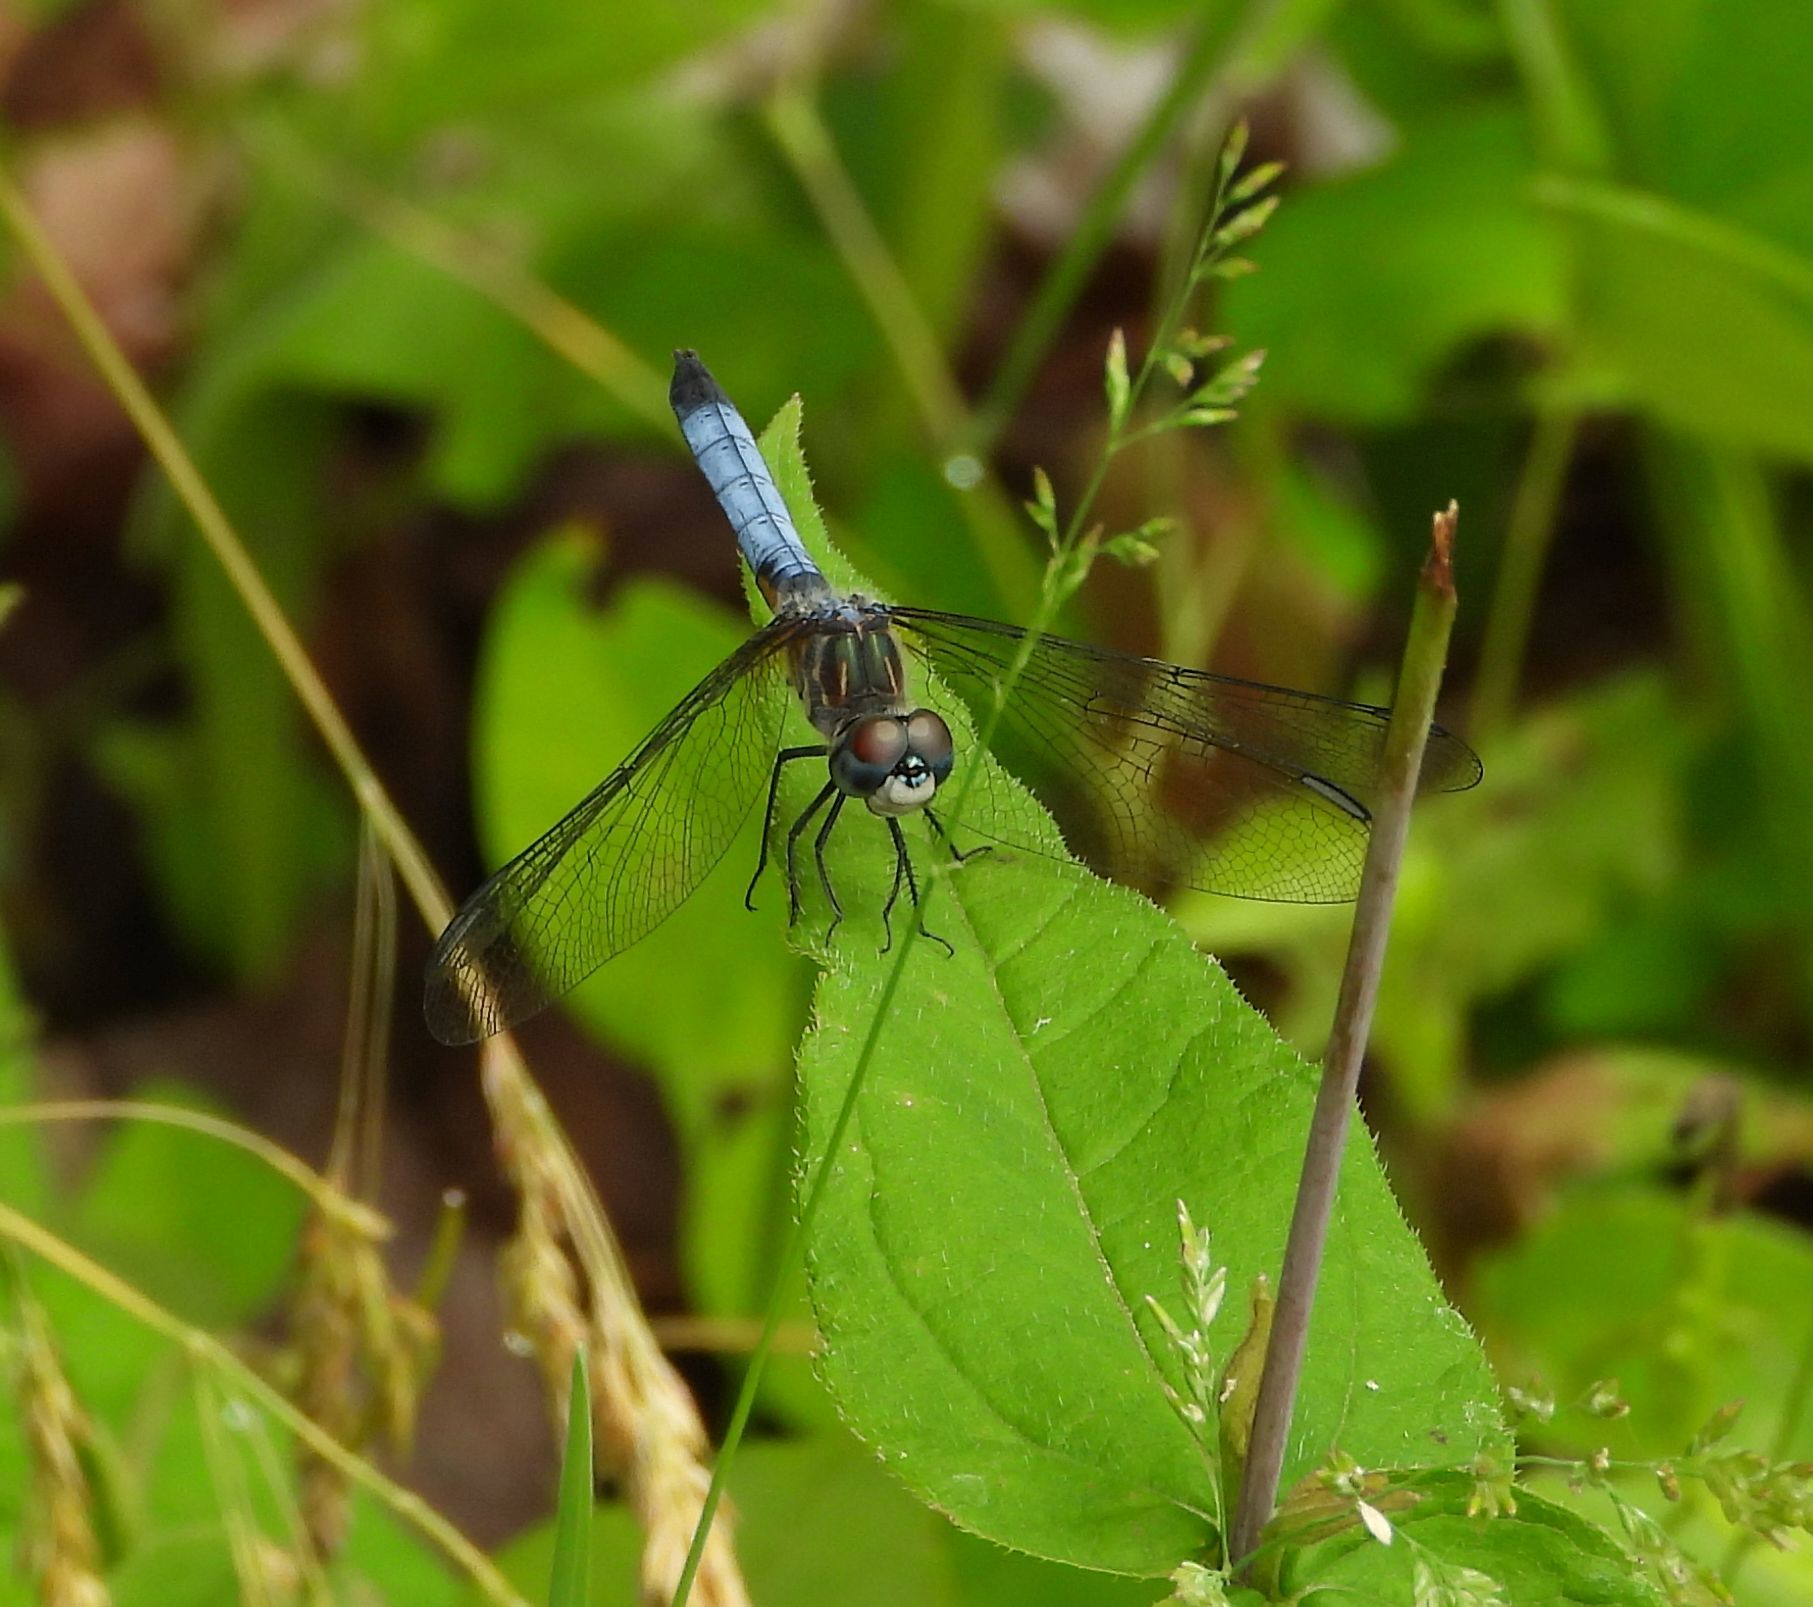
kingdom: Animalia
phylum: Arthropoda
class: Insecta
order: Odonata
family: Libellulidae
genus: Pachydiplax
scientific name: Pachydiplax longipennis
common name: Blue dasher
